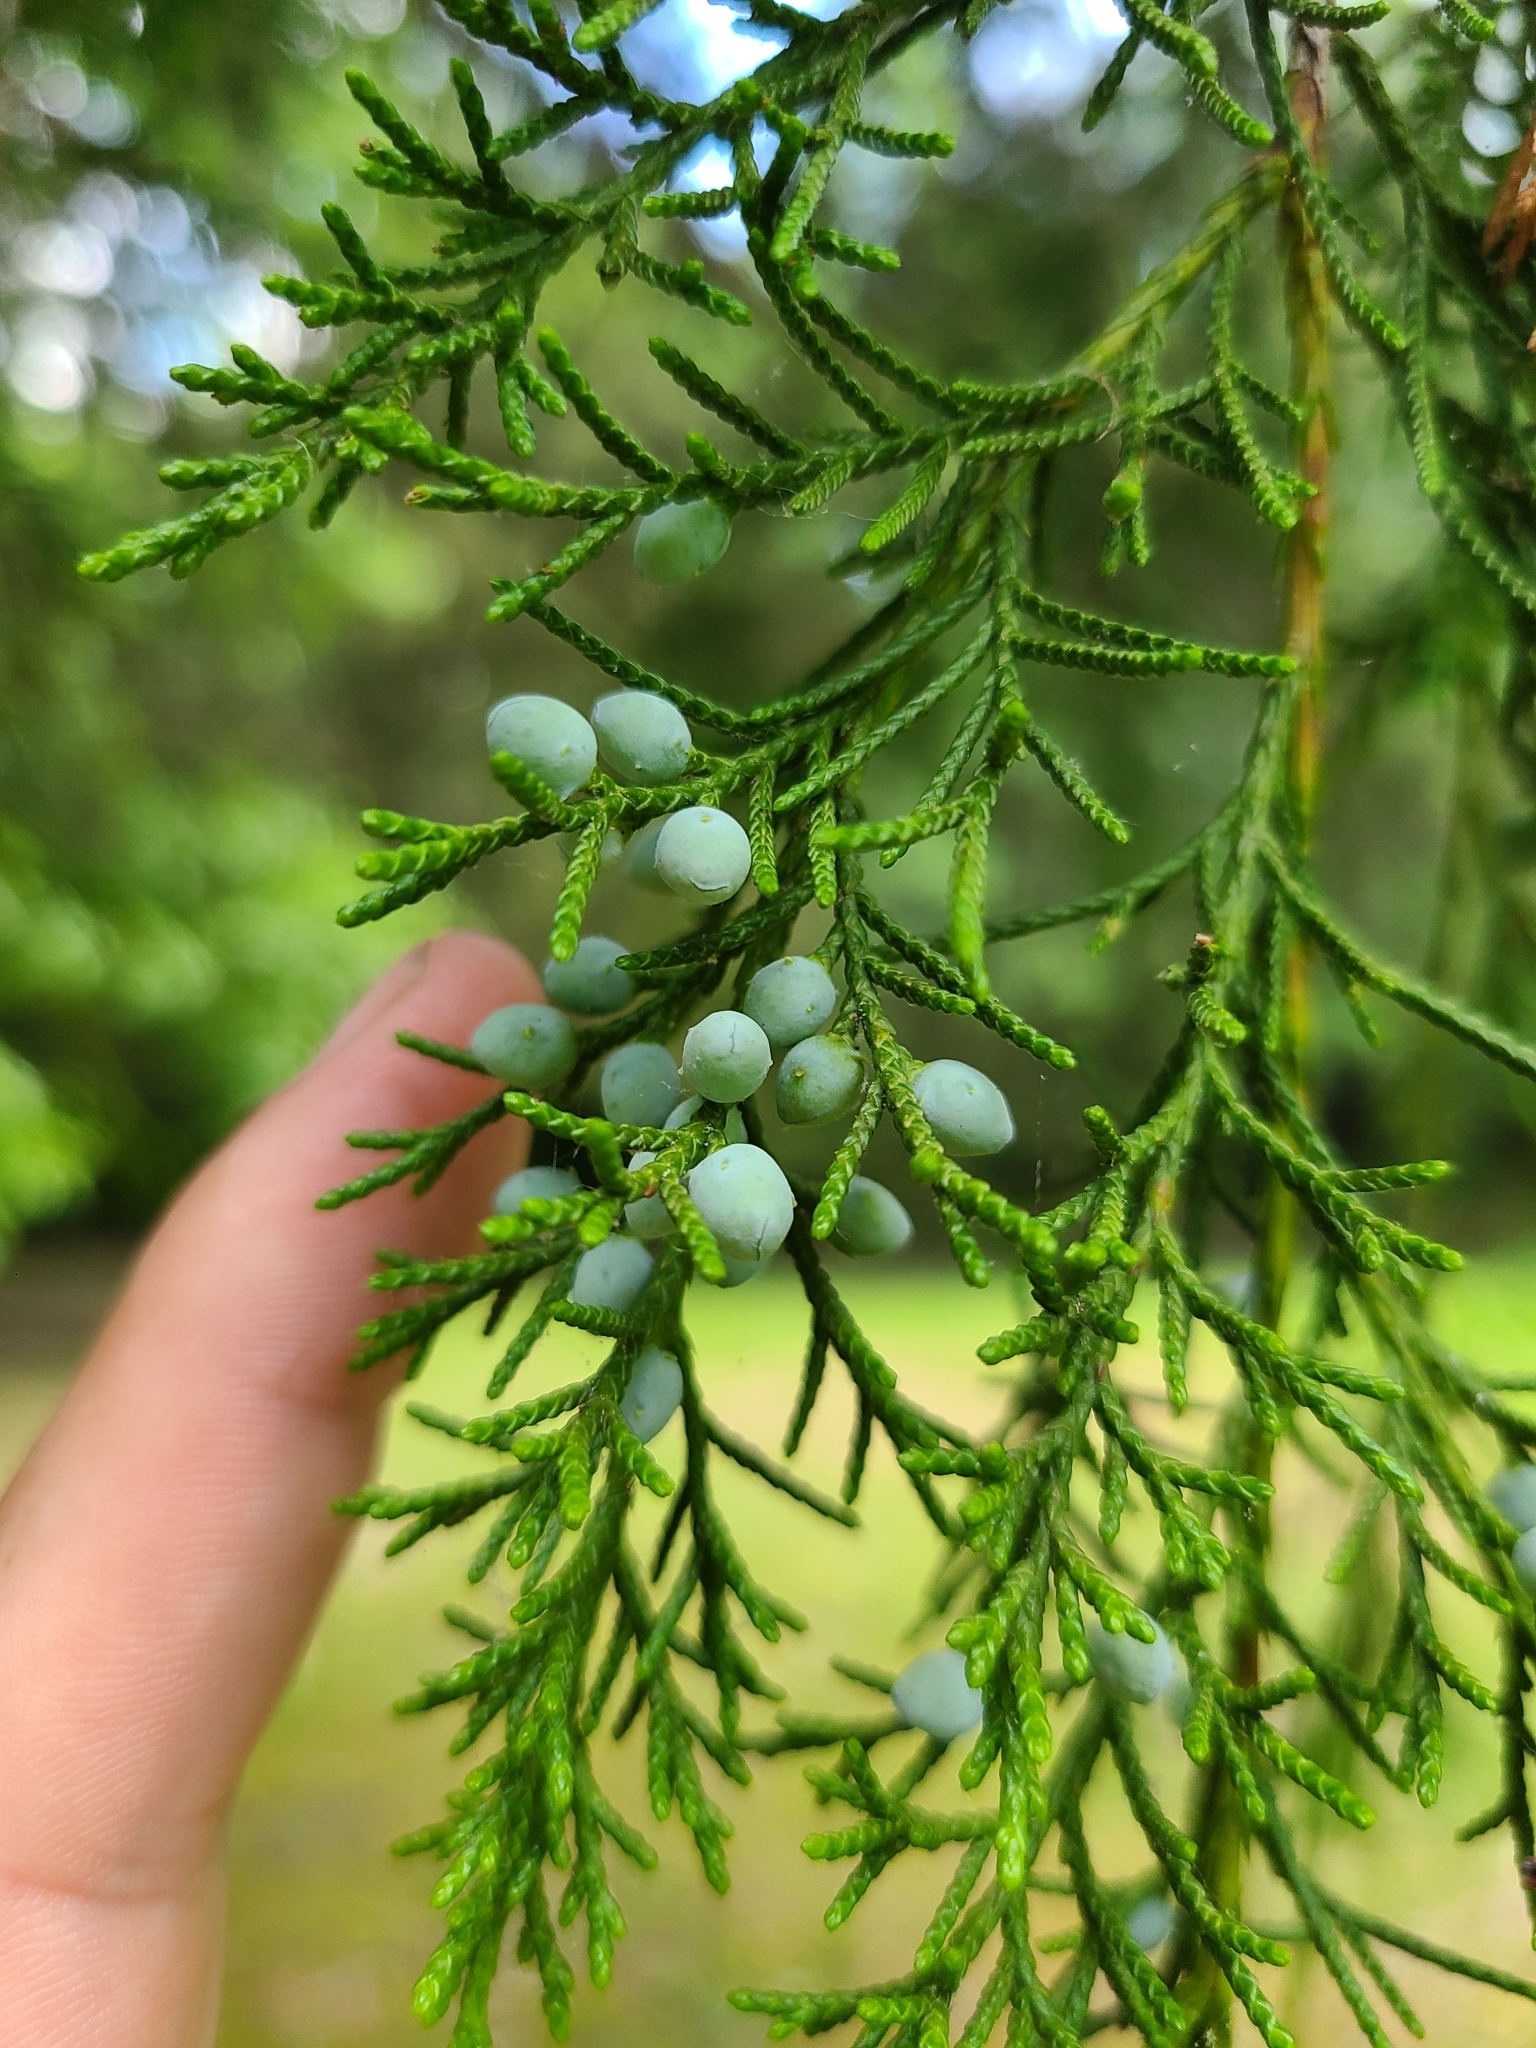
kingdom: Plantae
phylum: Tracheophyta
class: Pinopsida
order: Pinales
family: Cupressaceae
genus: Juniperus
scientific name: Juniperus virginiana
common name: Red juniper
